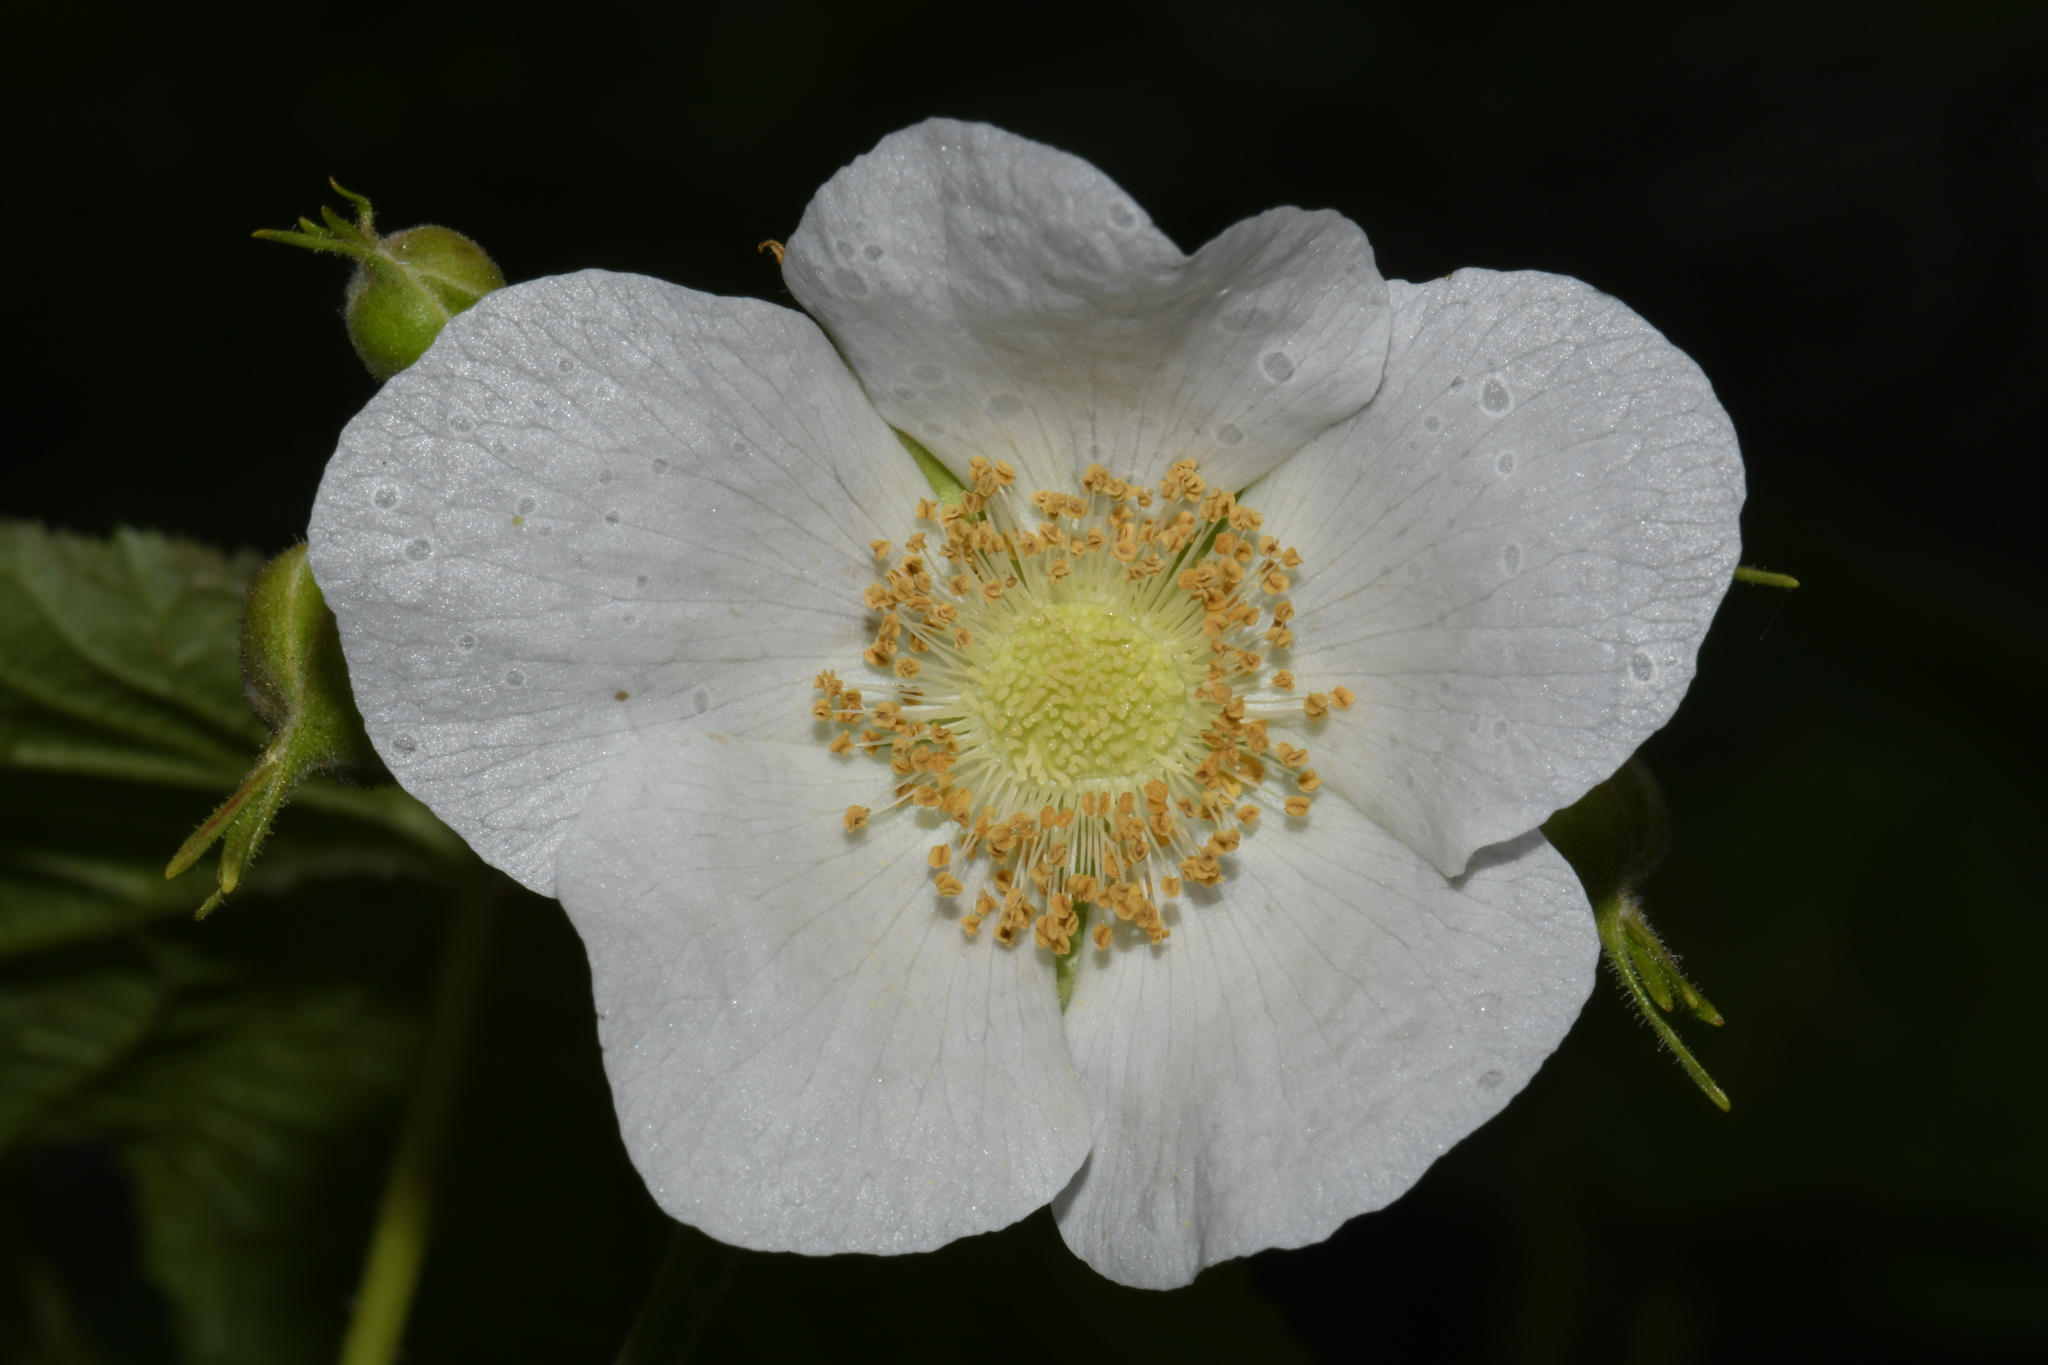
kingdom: Plantae
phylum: Tracheophyta
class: Magnoliopsida
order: Rosales
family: Rosaceae
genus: Rubus
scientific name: Rubus parviflorus
